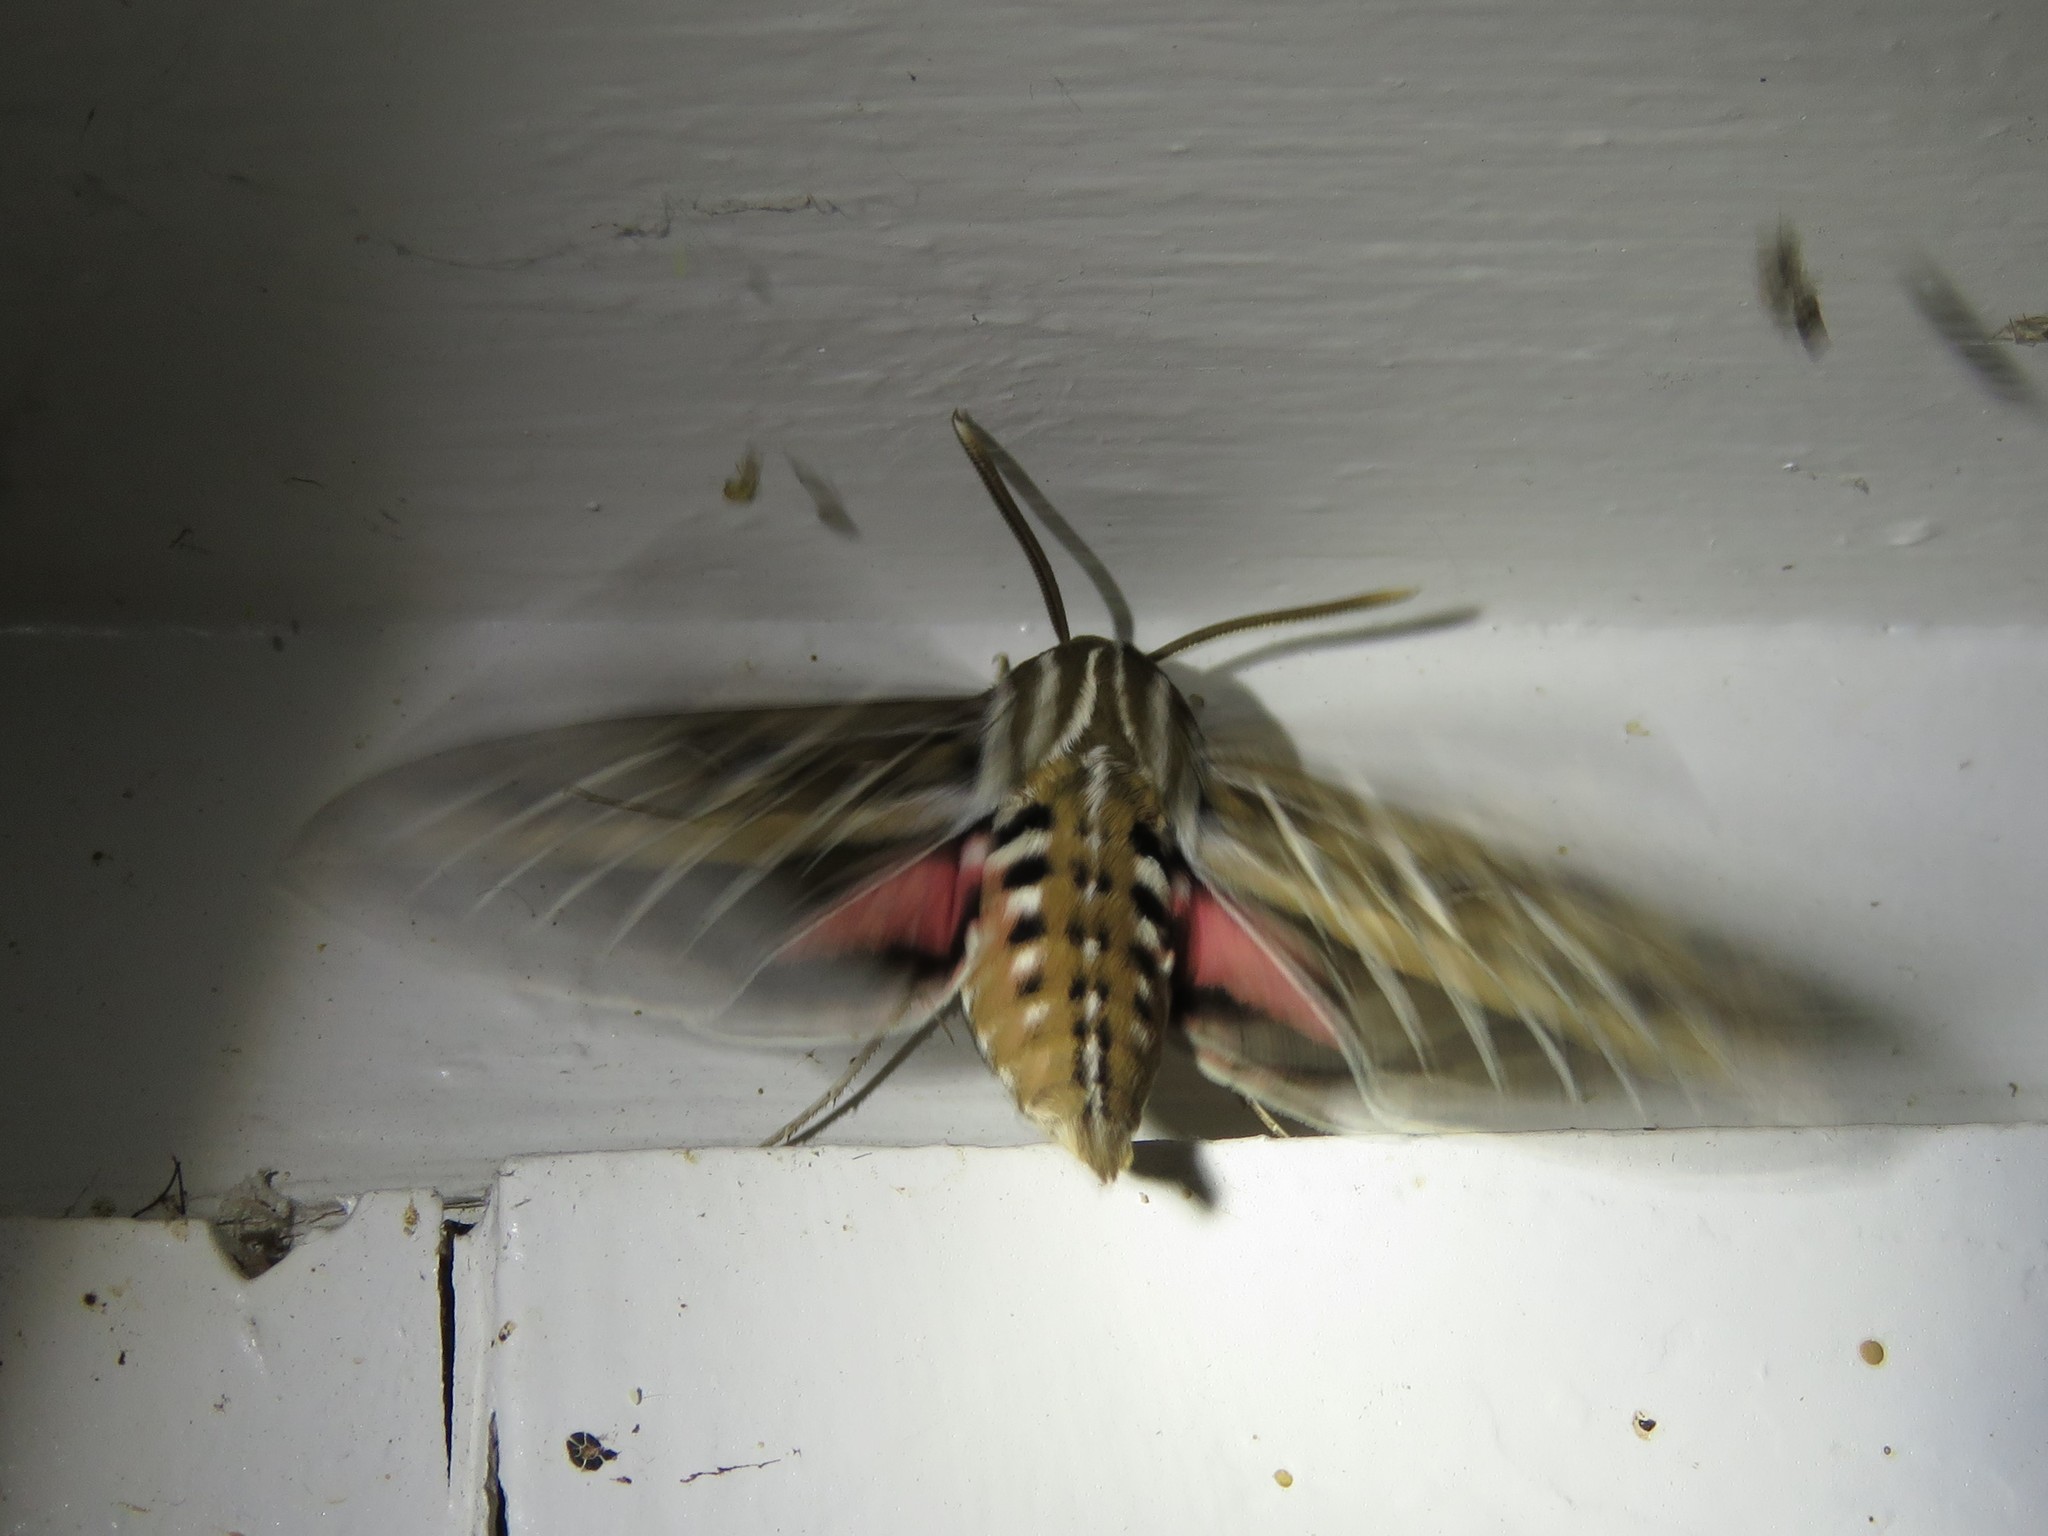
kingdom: Animalia
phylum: Arthropoda
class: Insecta
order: Lepidoptera
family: Sphingidae
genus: Hyles
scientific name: Hyles lineata
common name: White-lined sphinx
